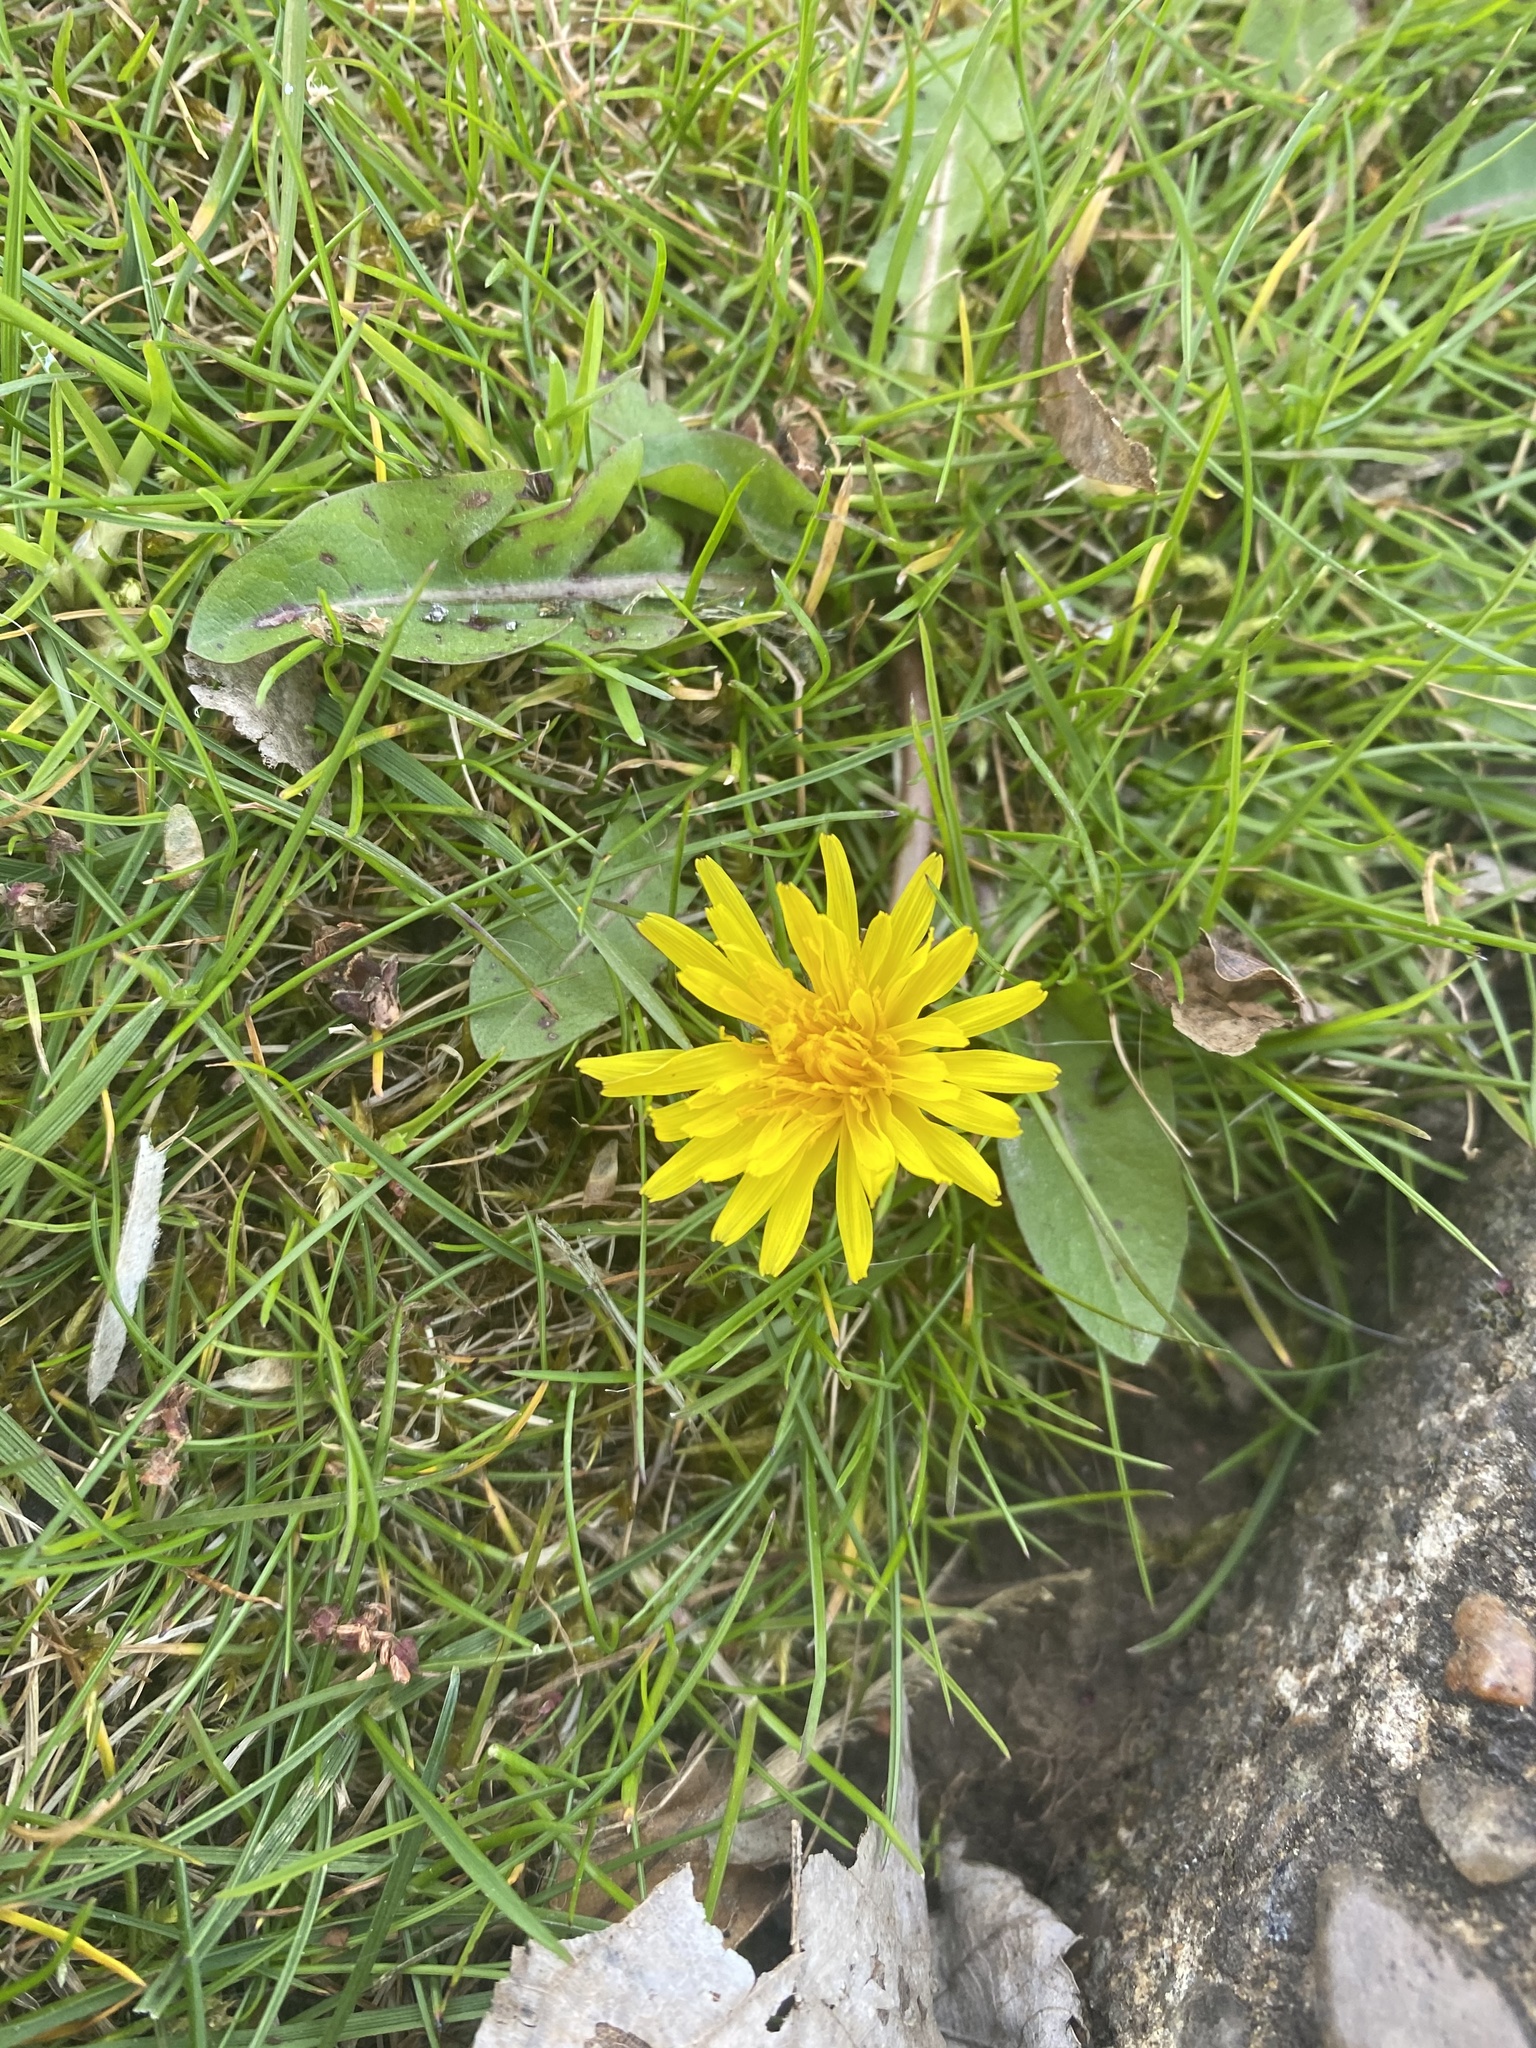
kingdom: Plantae
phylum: Tracheophyta
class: Magnoliopsida
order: Asterales
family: Asteraceae
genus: Taraxacum
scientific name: Taraxacum officinale
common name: Common dandelion
